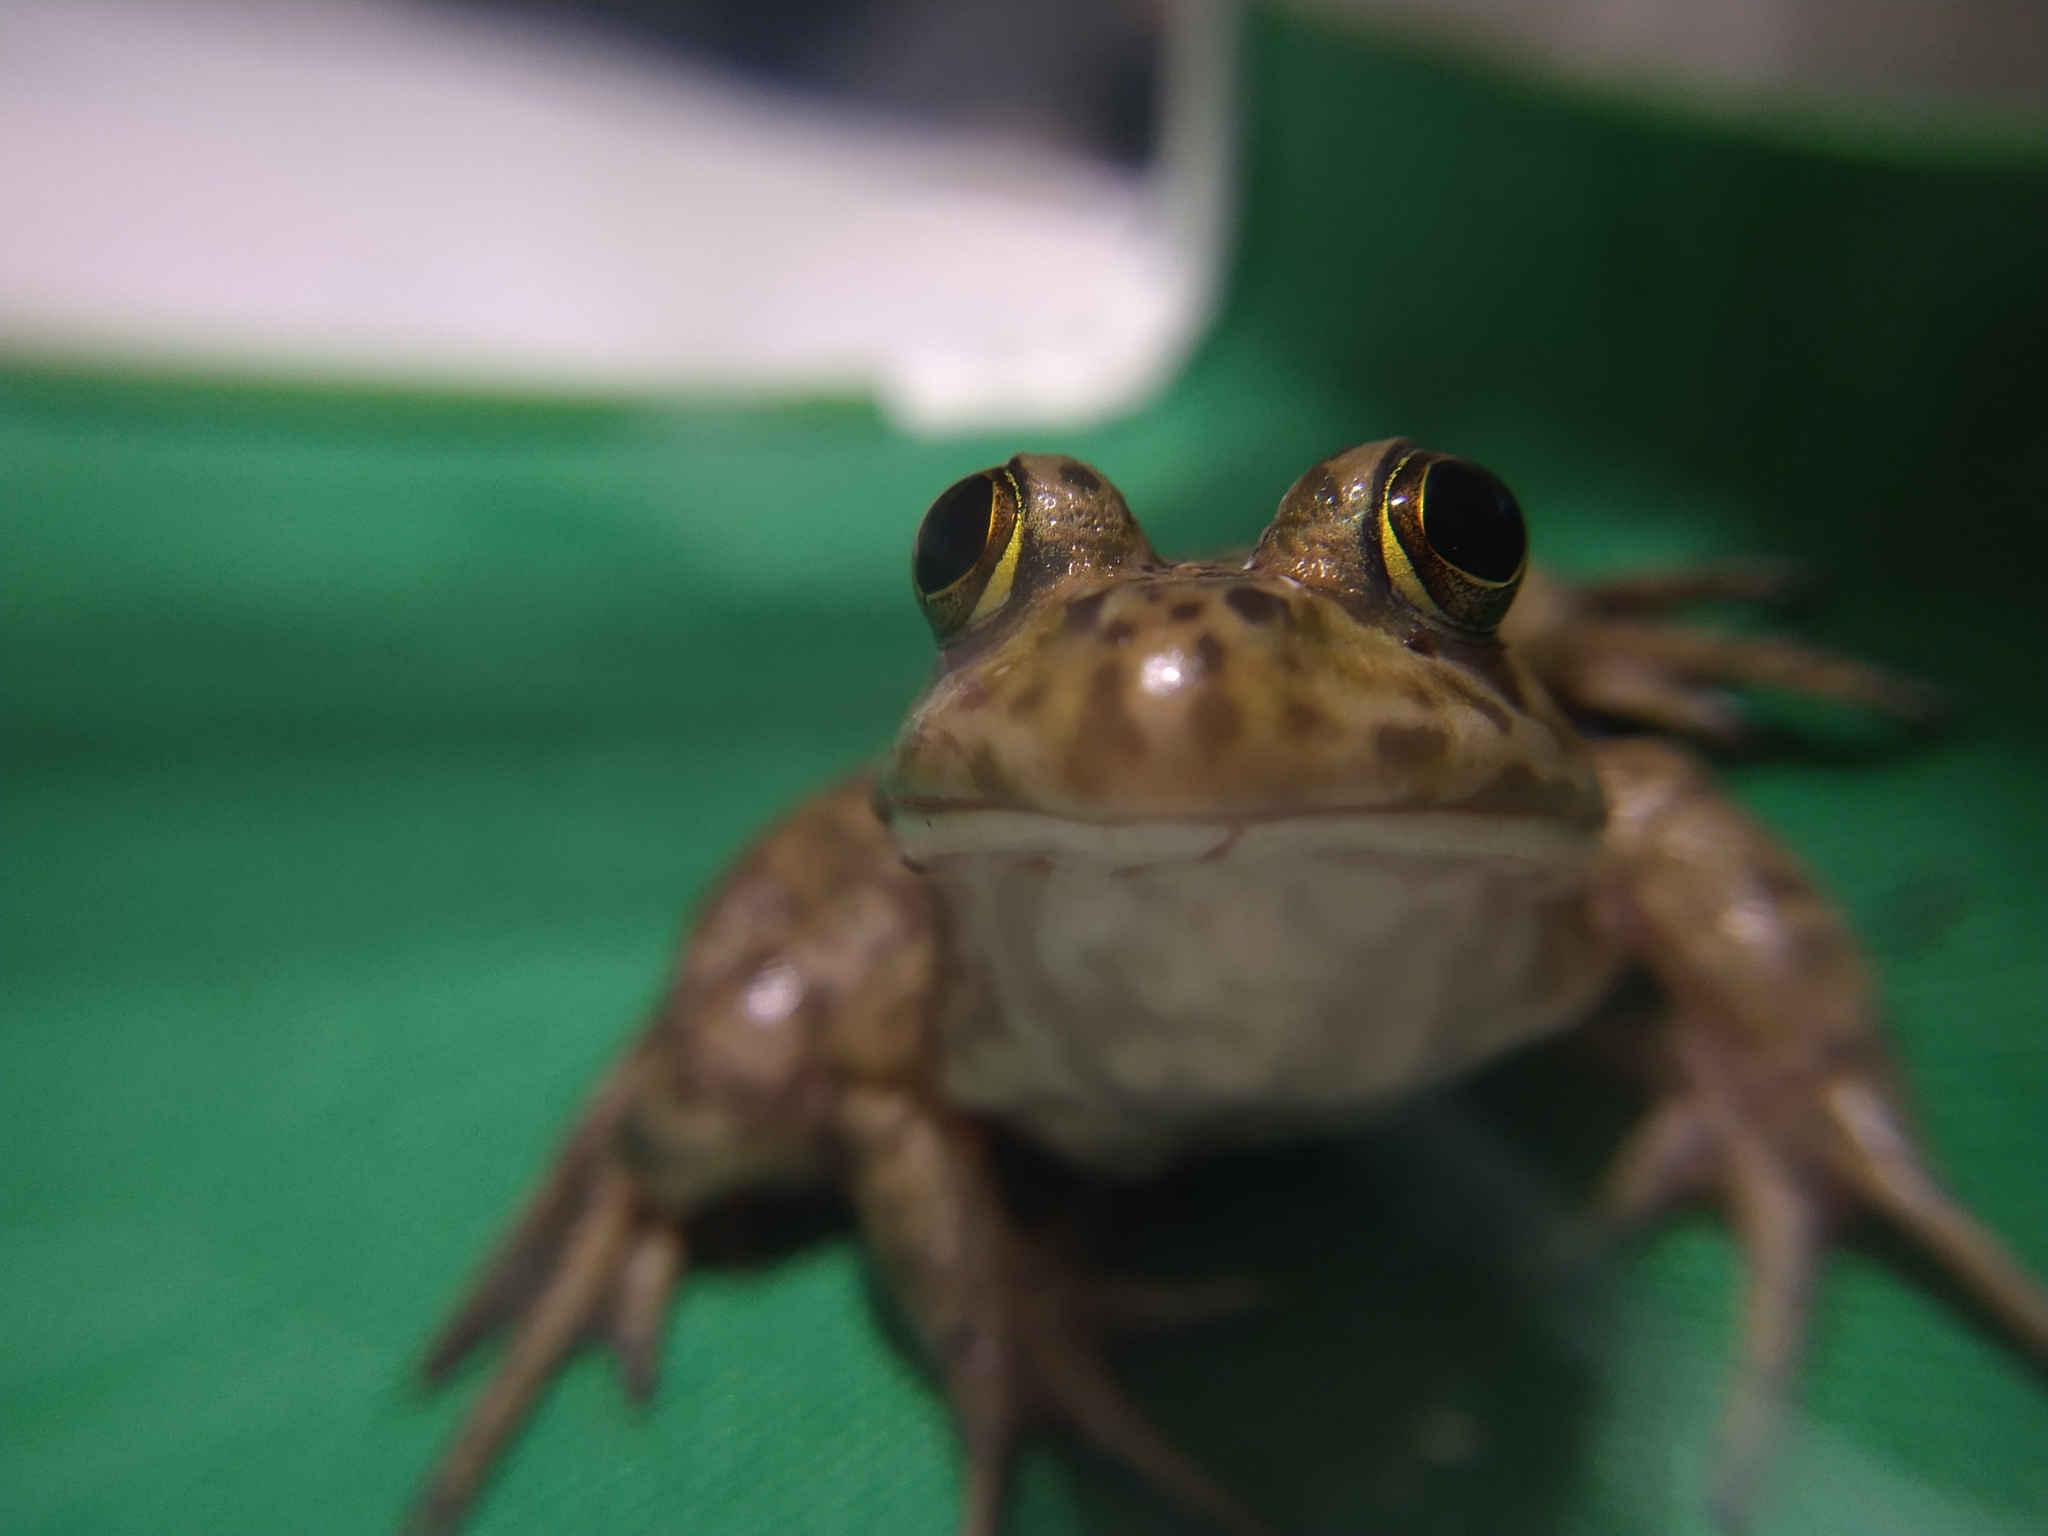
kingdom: Animalia
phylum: Chordata
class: Amphibia
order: Anura
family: Ranidae
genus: Lithobates
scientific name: Lithobates catesbeianus
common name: American bullfrog
